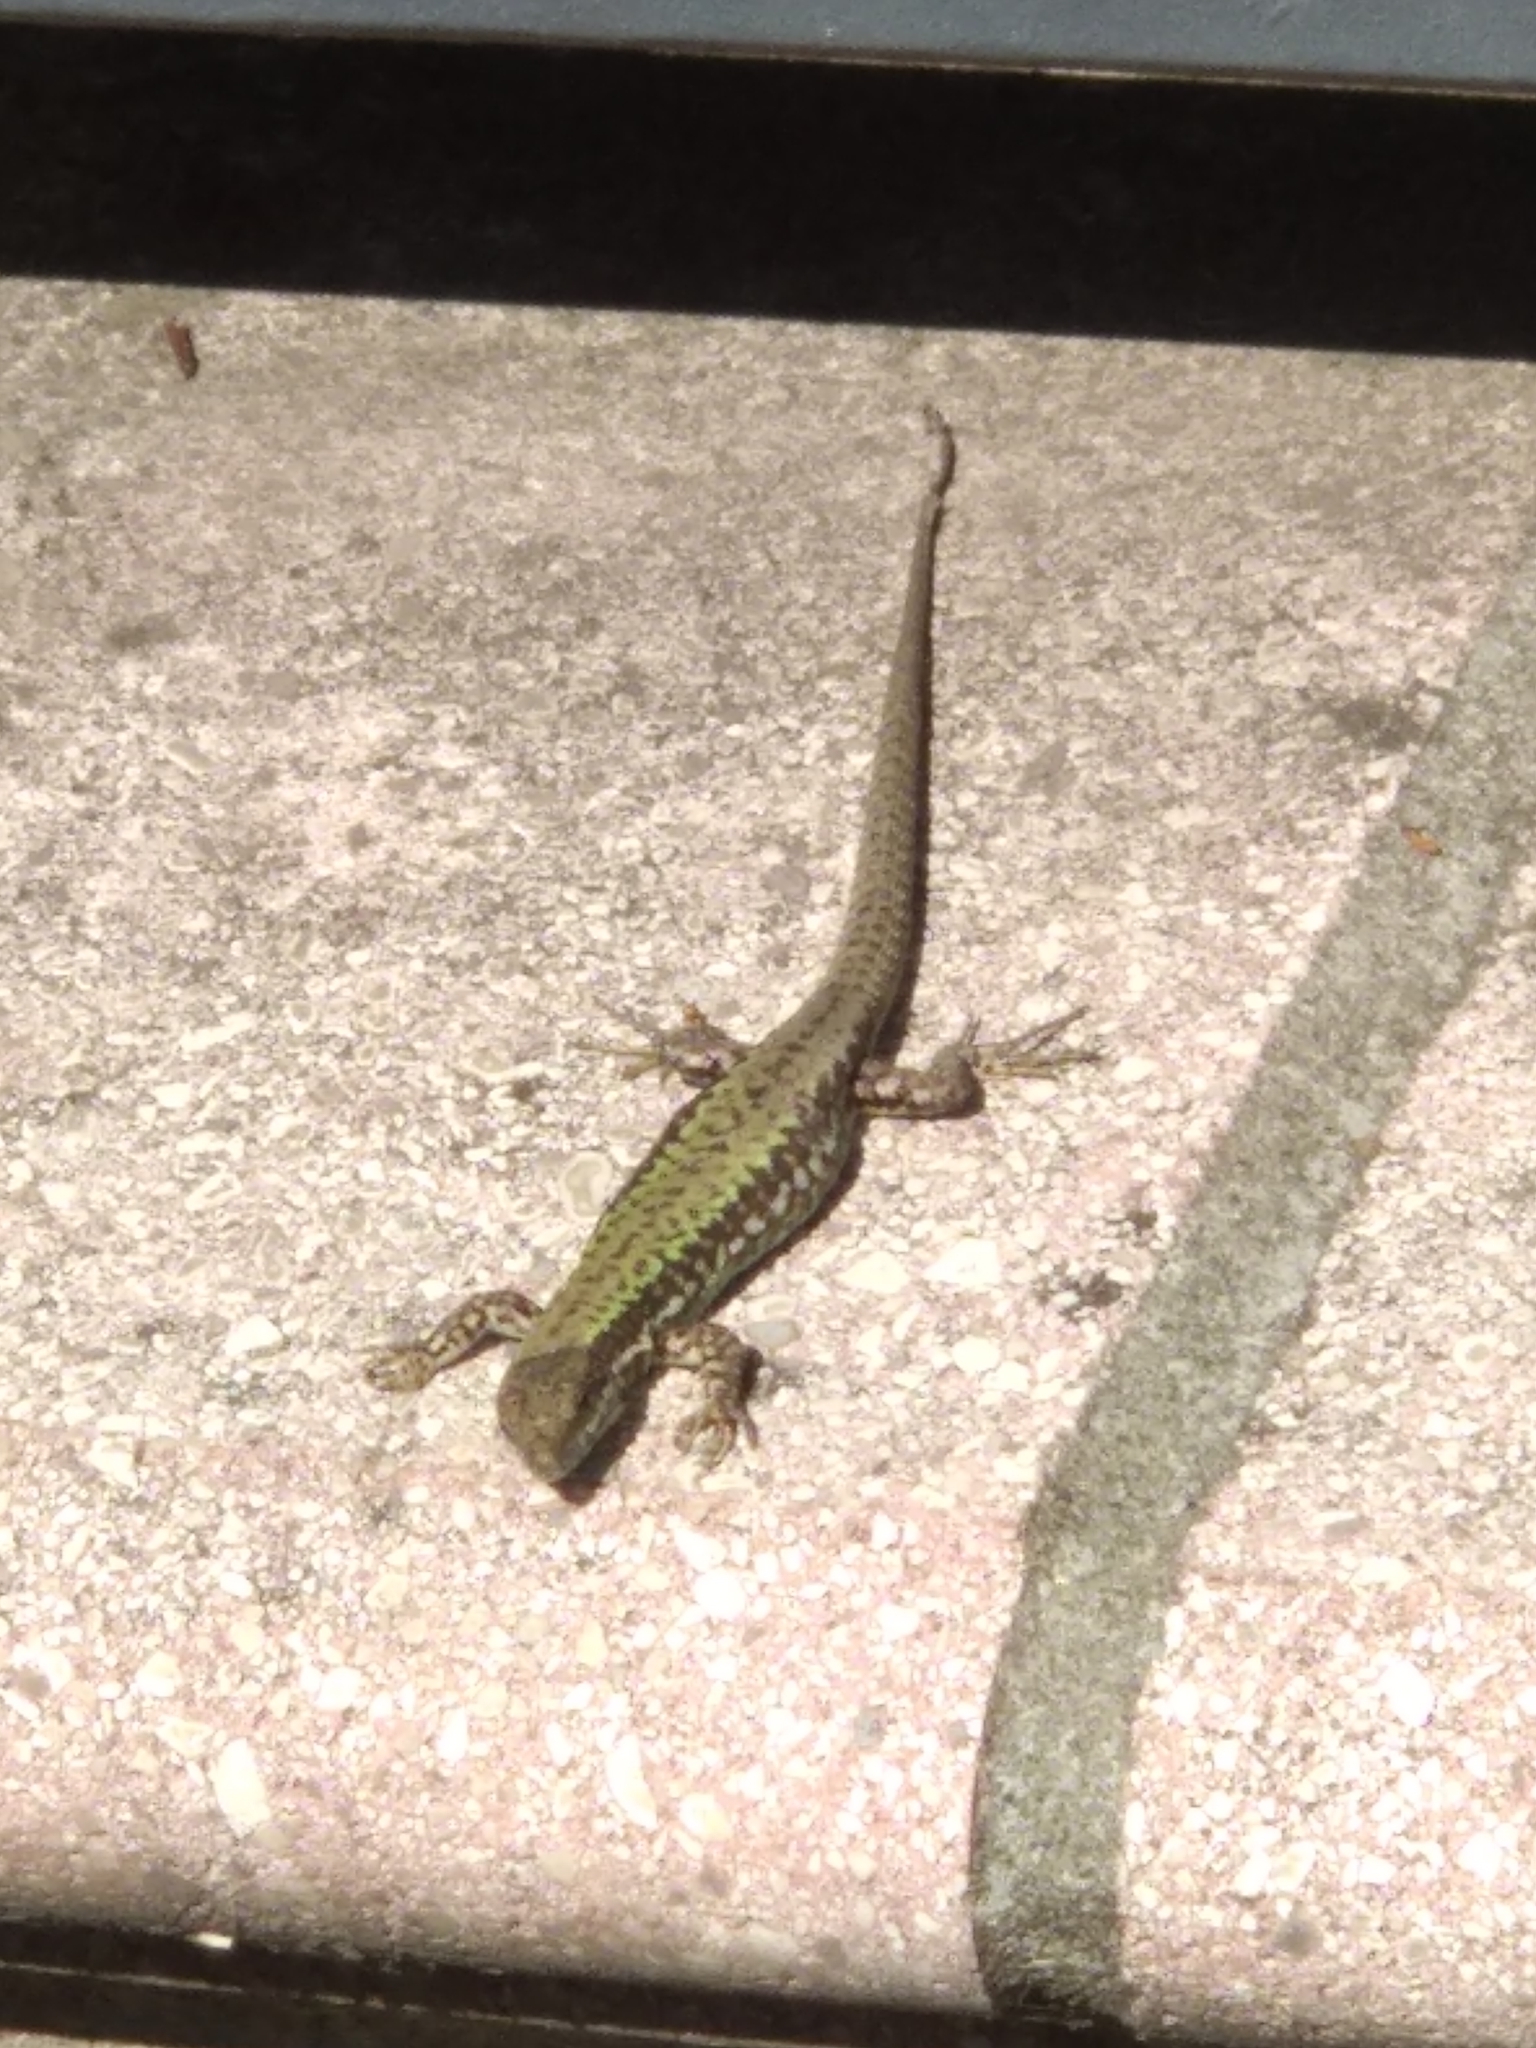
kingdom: Animalia
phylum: Chordata
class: Squamata
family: Lacertidae
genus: Podarcis
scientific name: Podarcis muralis
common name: Common wall lizard
